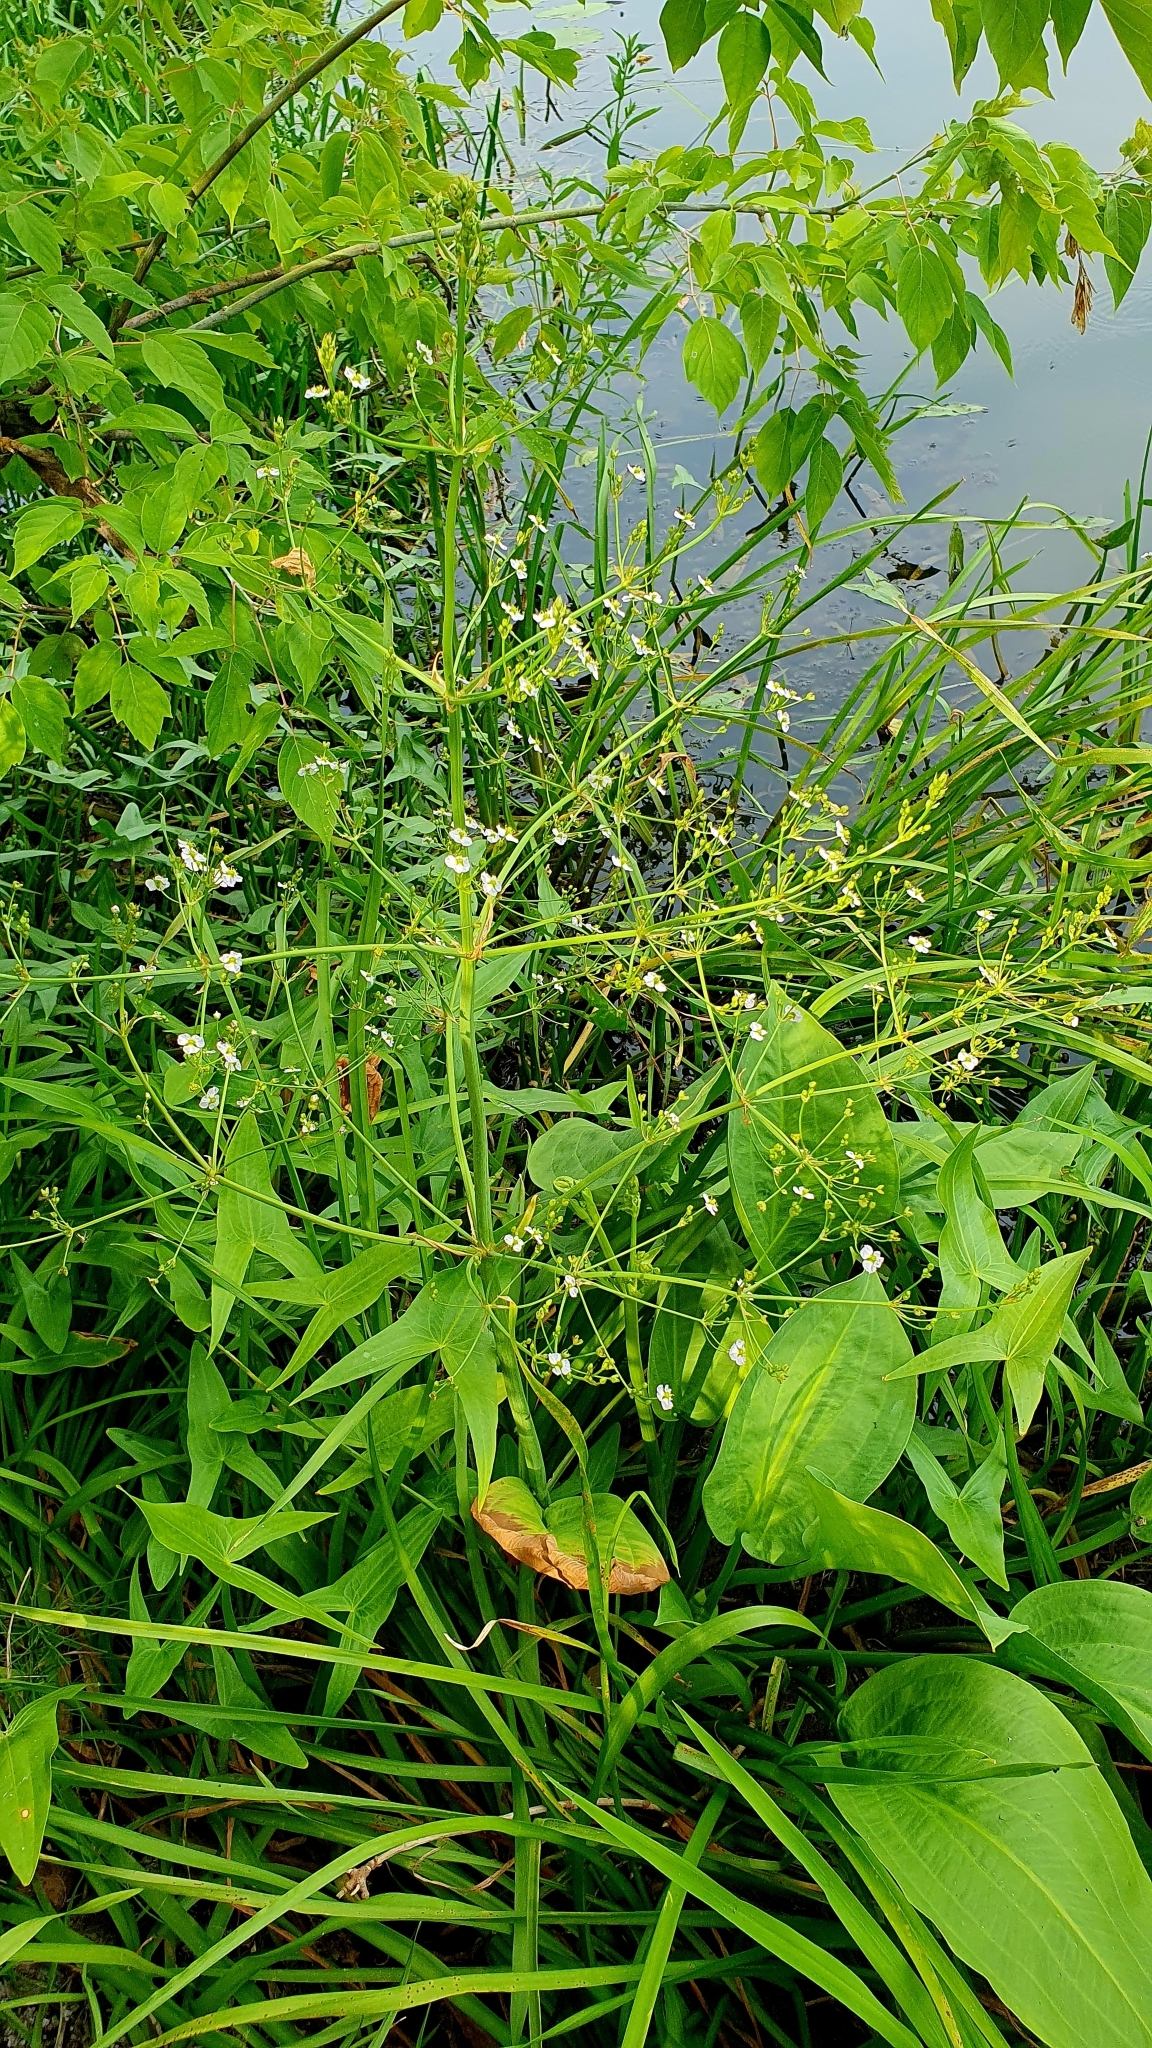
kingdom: Plantae
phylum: Tracheophyta
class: Liliopsida
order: Alismatales
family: Alismataceae
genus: Alisma
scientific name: Alisma plantago-aquatica
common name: Water-plantain
